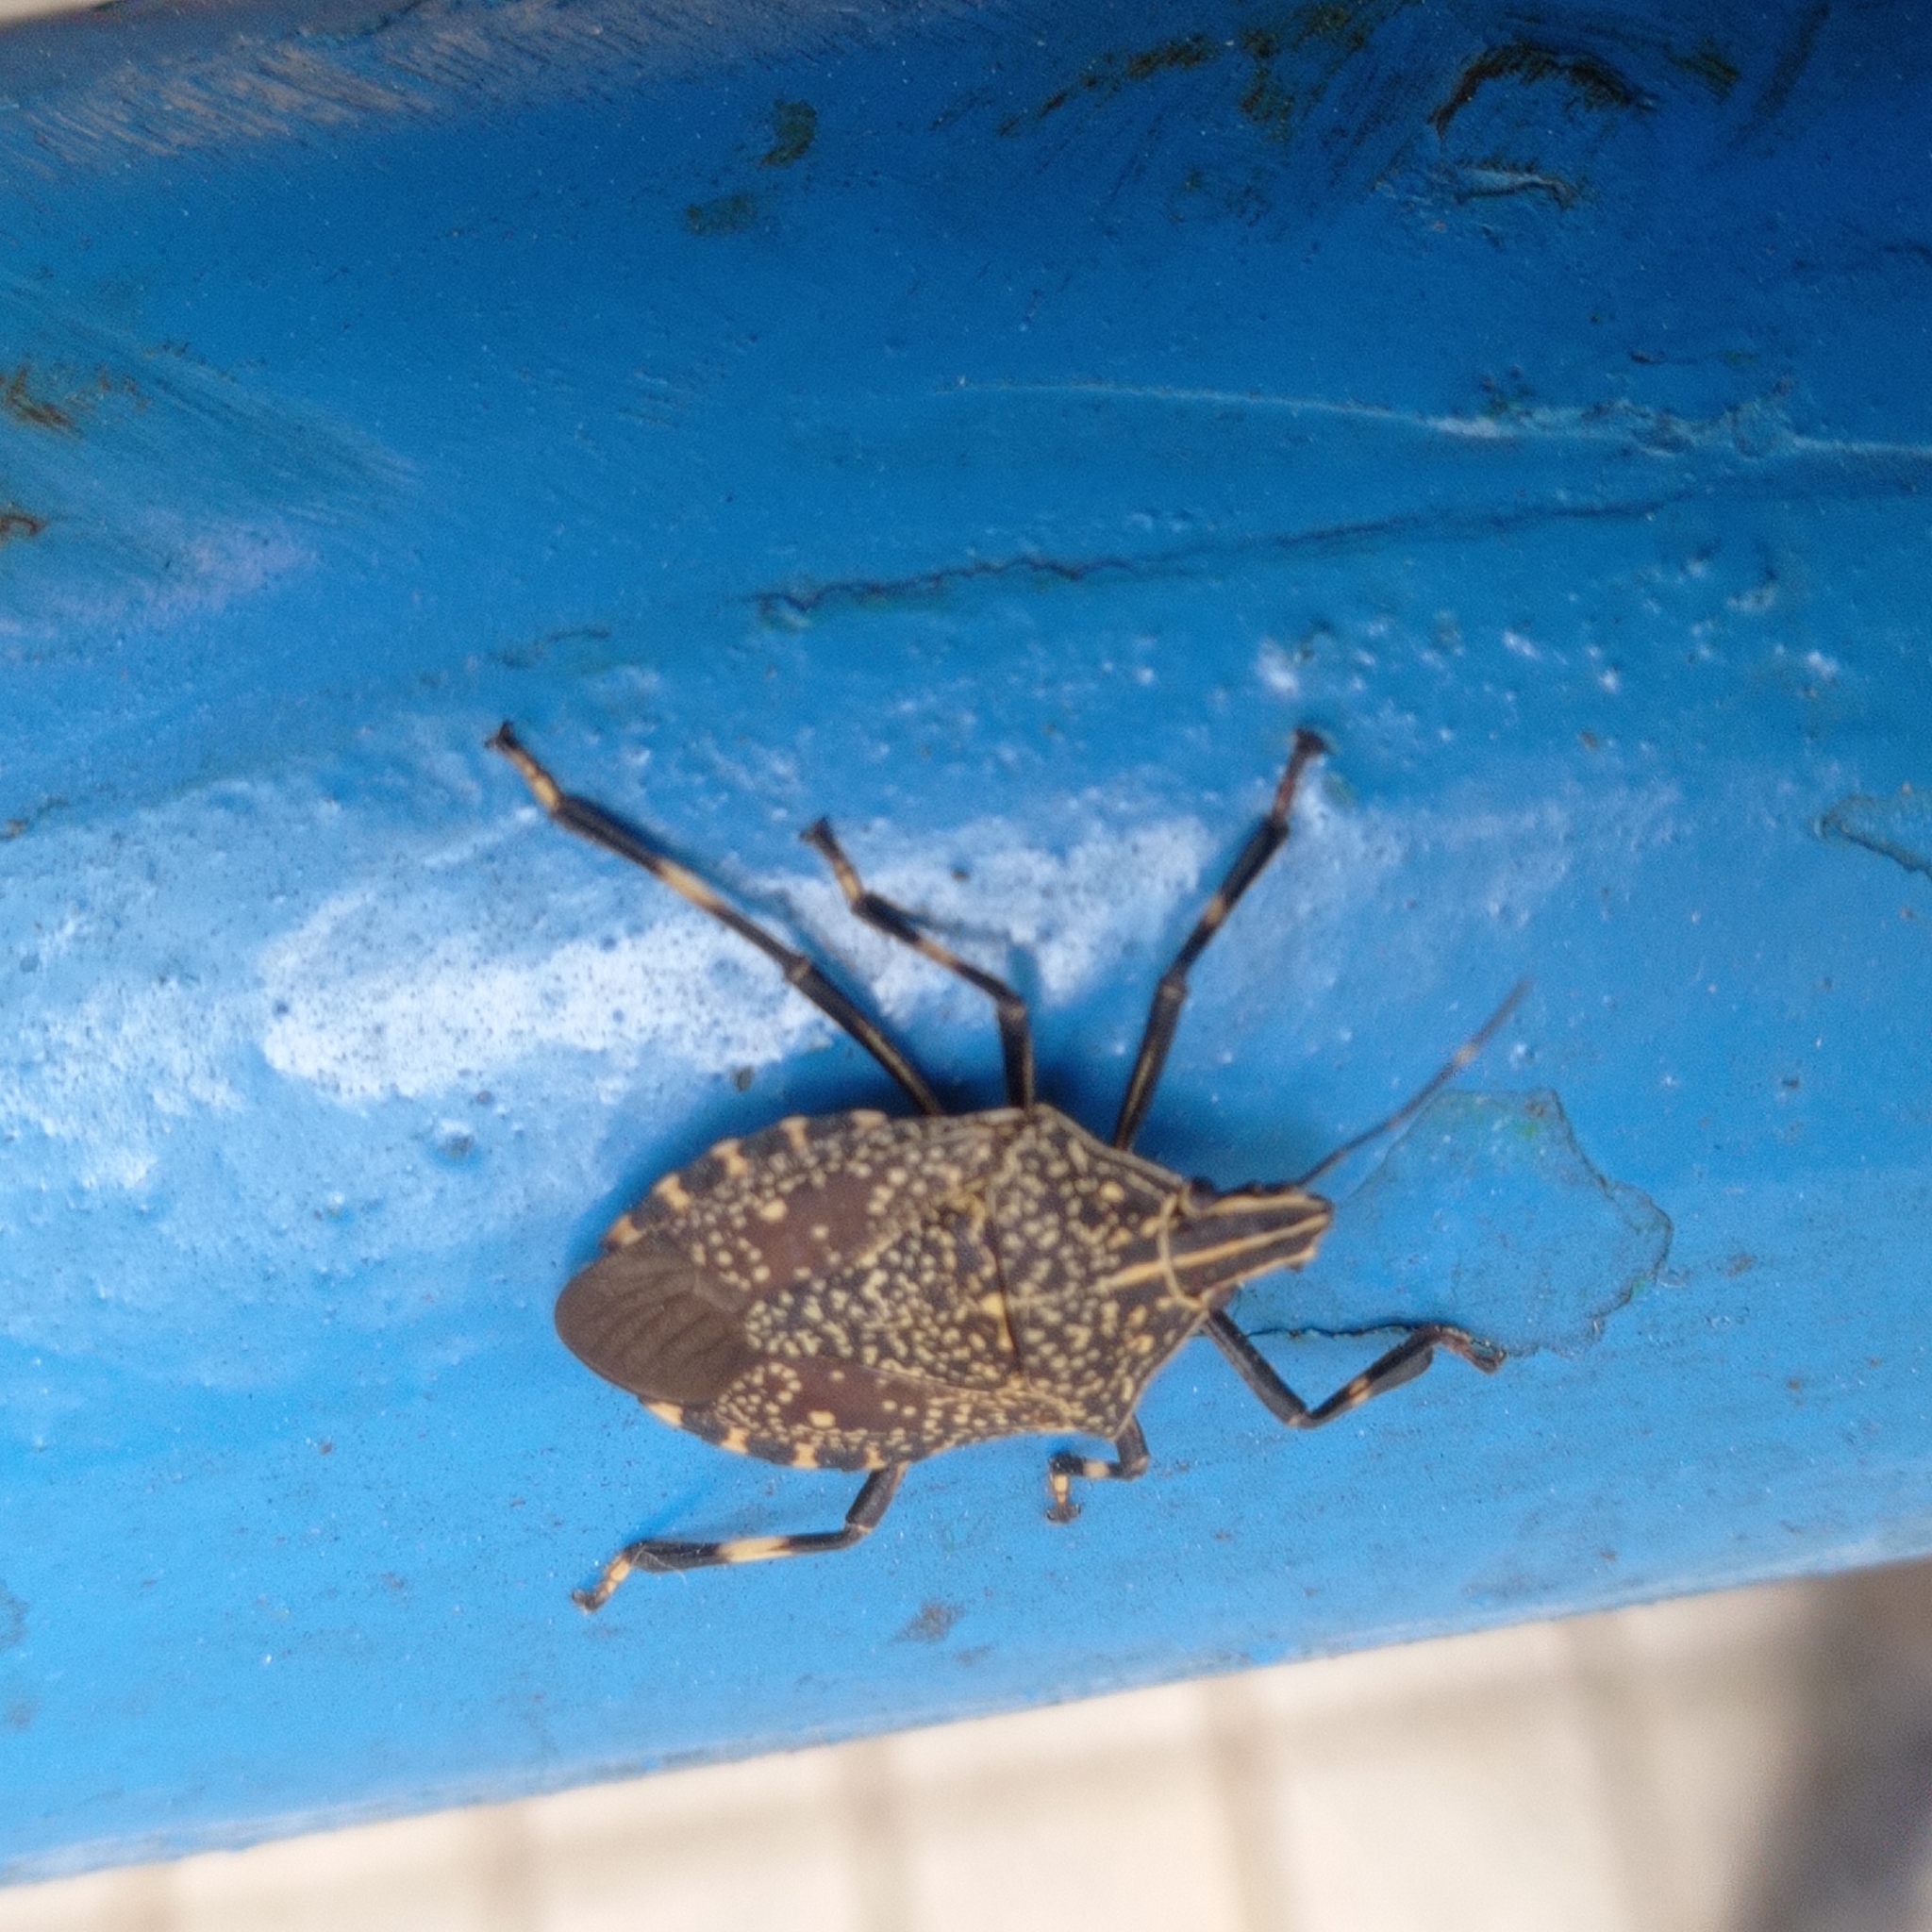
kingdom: Animalia
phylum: Arthropoda
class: Insecta
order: Hemiptera
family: Pentatomidae
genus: Erthesina
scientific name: Erthesina fullo
